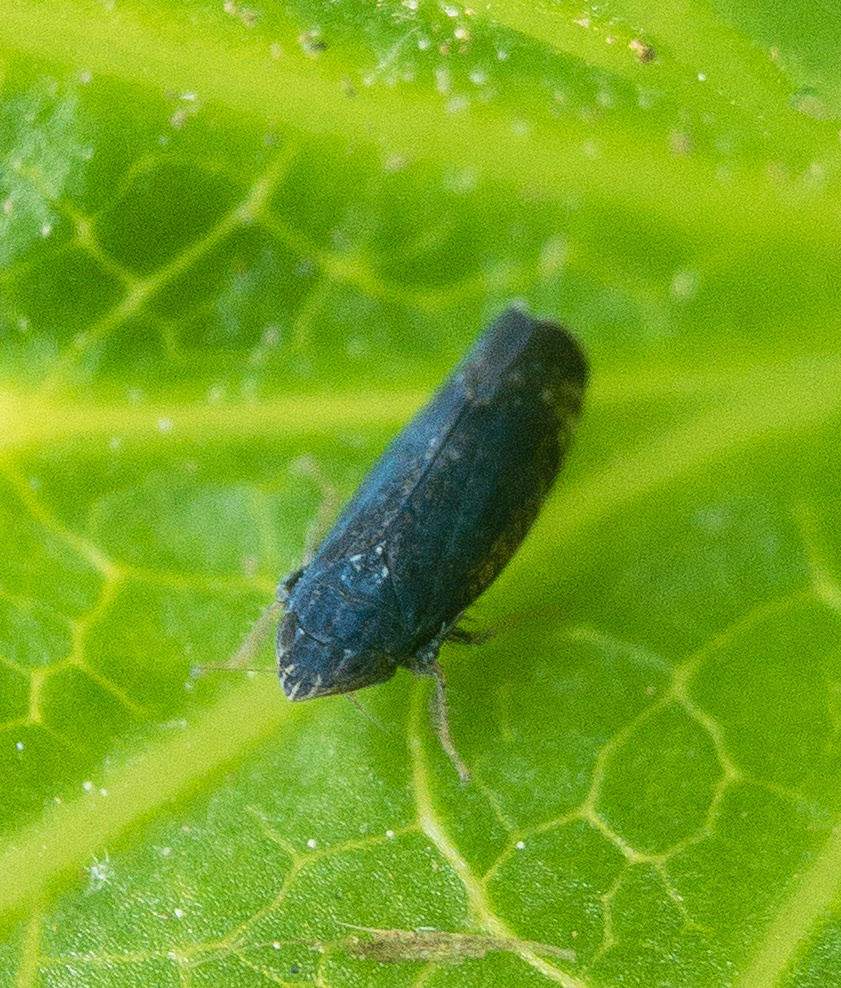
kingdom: Animalia
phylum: Arthropoda
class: Insecta
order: Hemiptera
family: Cicadellidae
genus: Scaphytopius
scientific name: Scaphytopius frontalis
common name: The yellow-faced leafhopper
